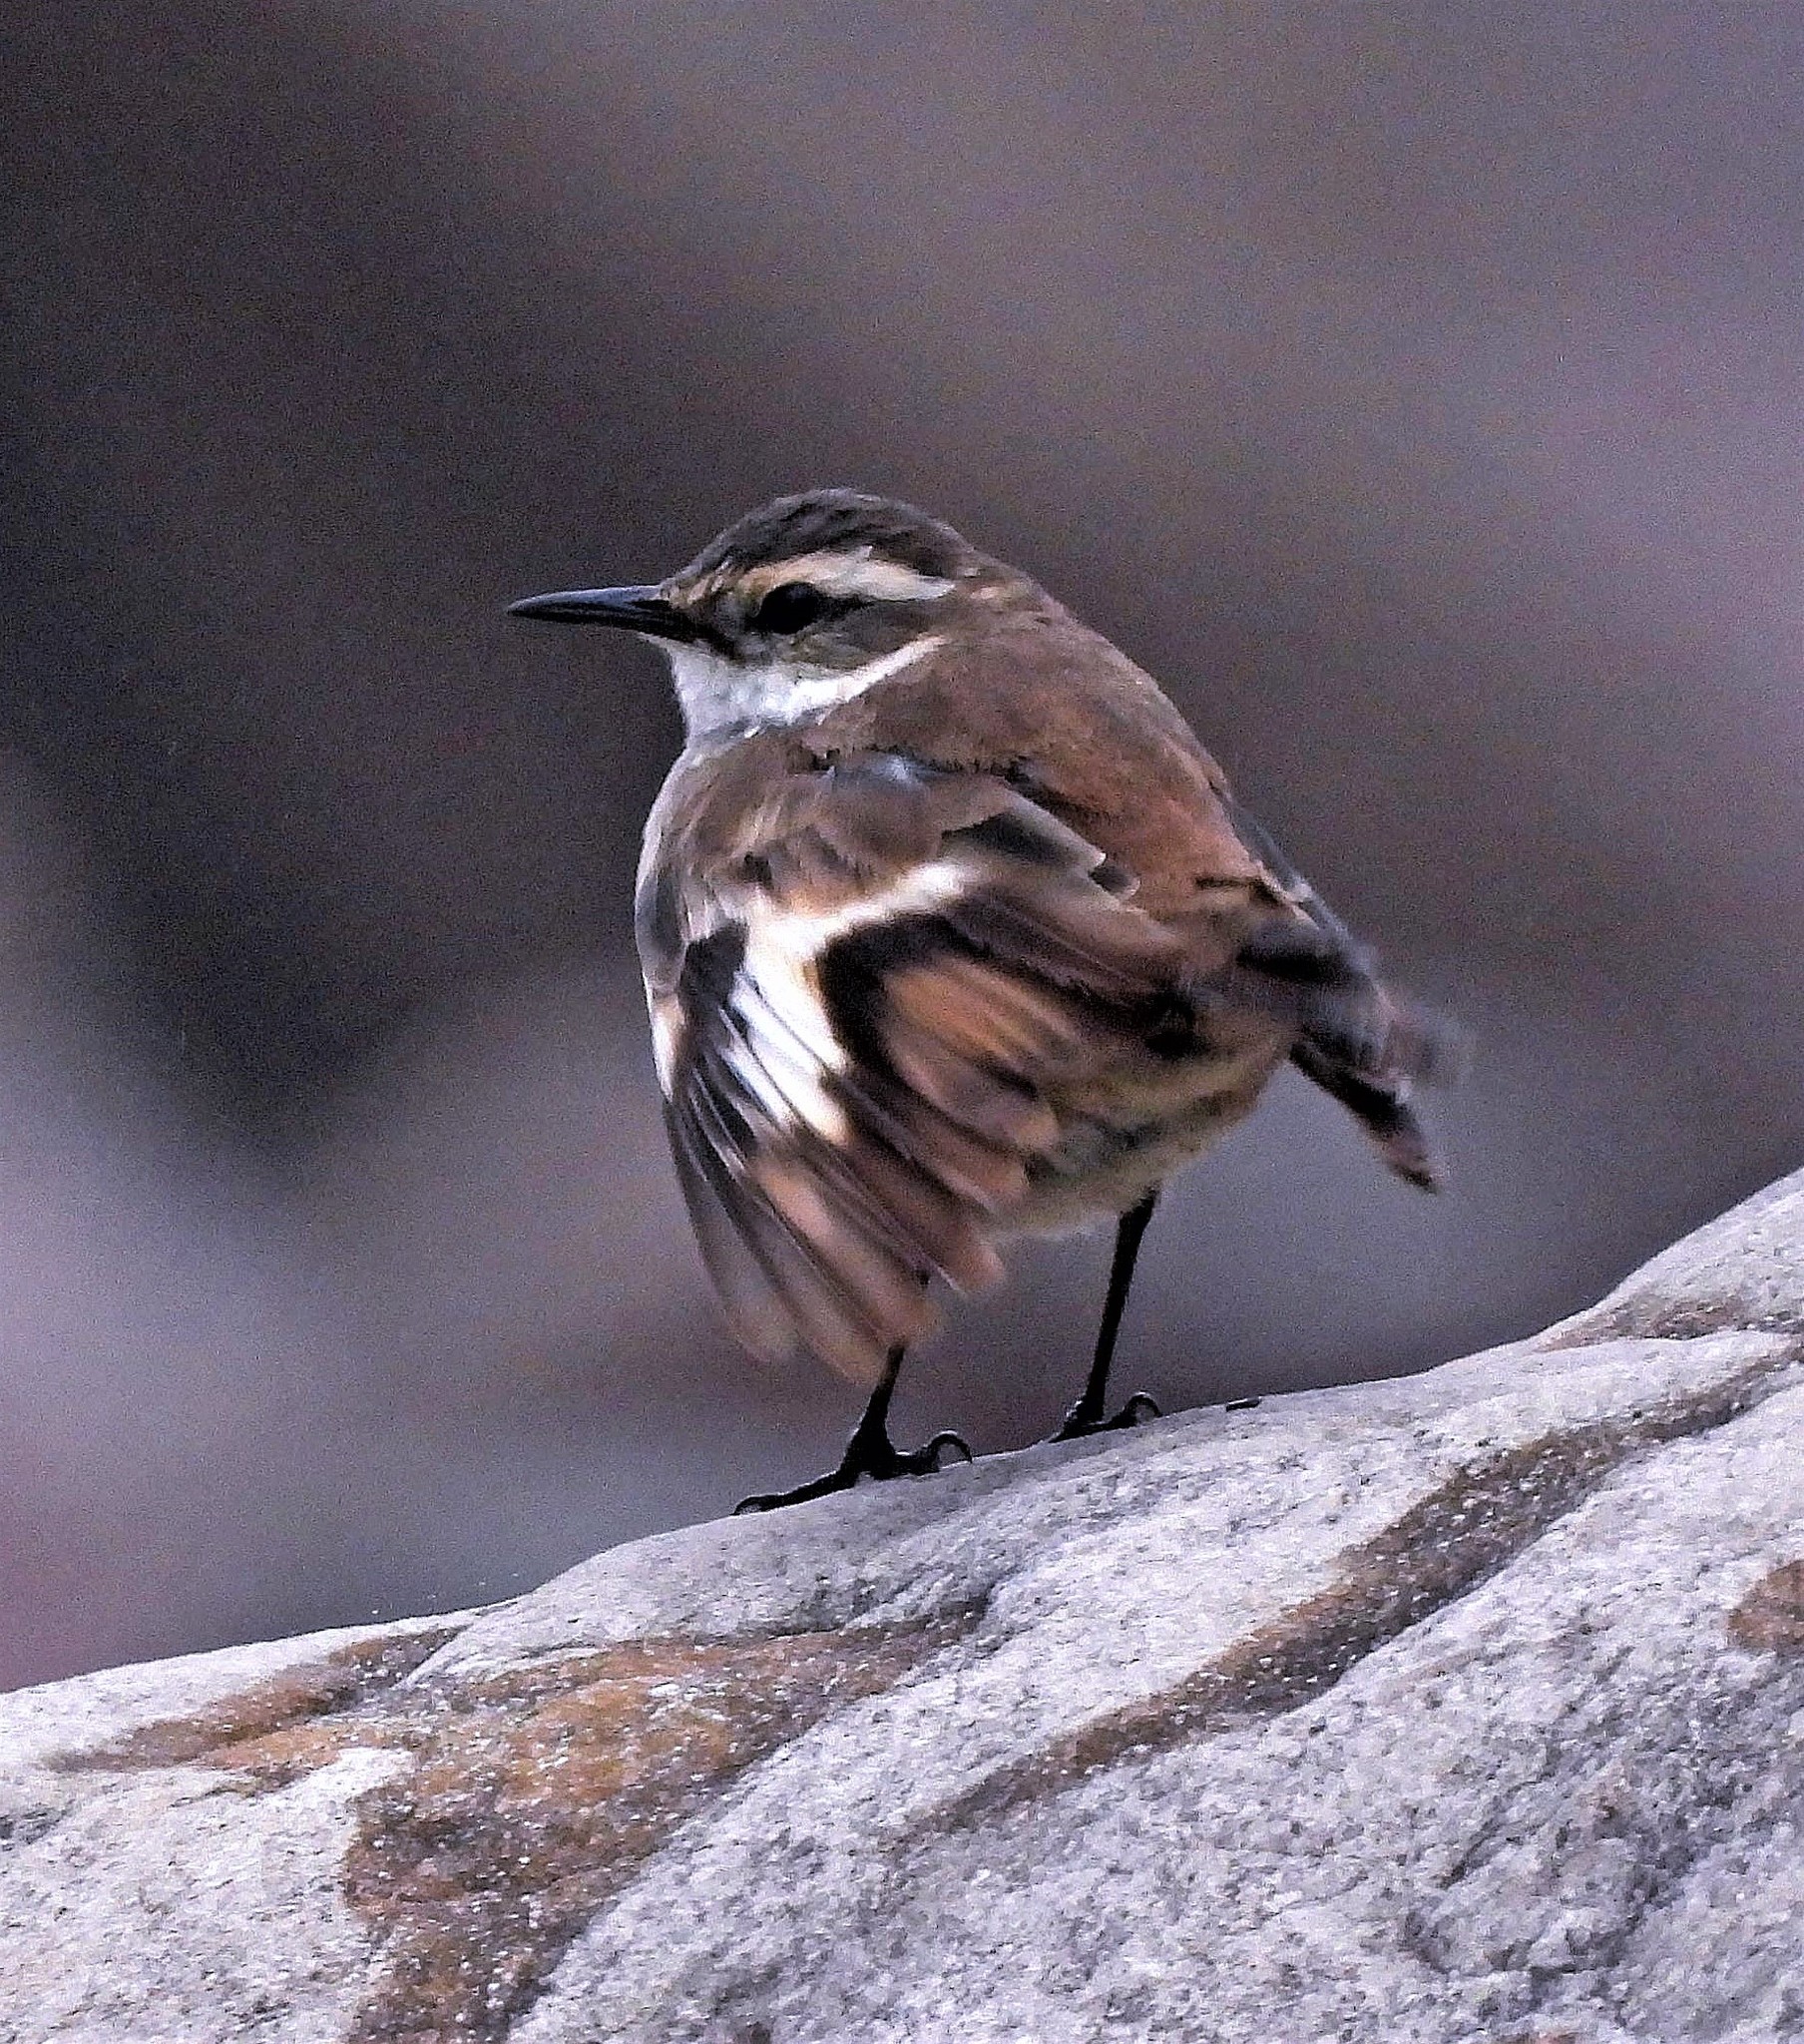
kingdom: Animalia
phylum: Chordata
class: Aves
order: Passeriformes
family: Furnariidae
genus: Cinclodes
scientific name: Cinclodes fuscus
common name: Buff-winged cinclodes
